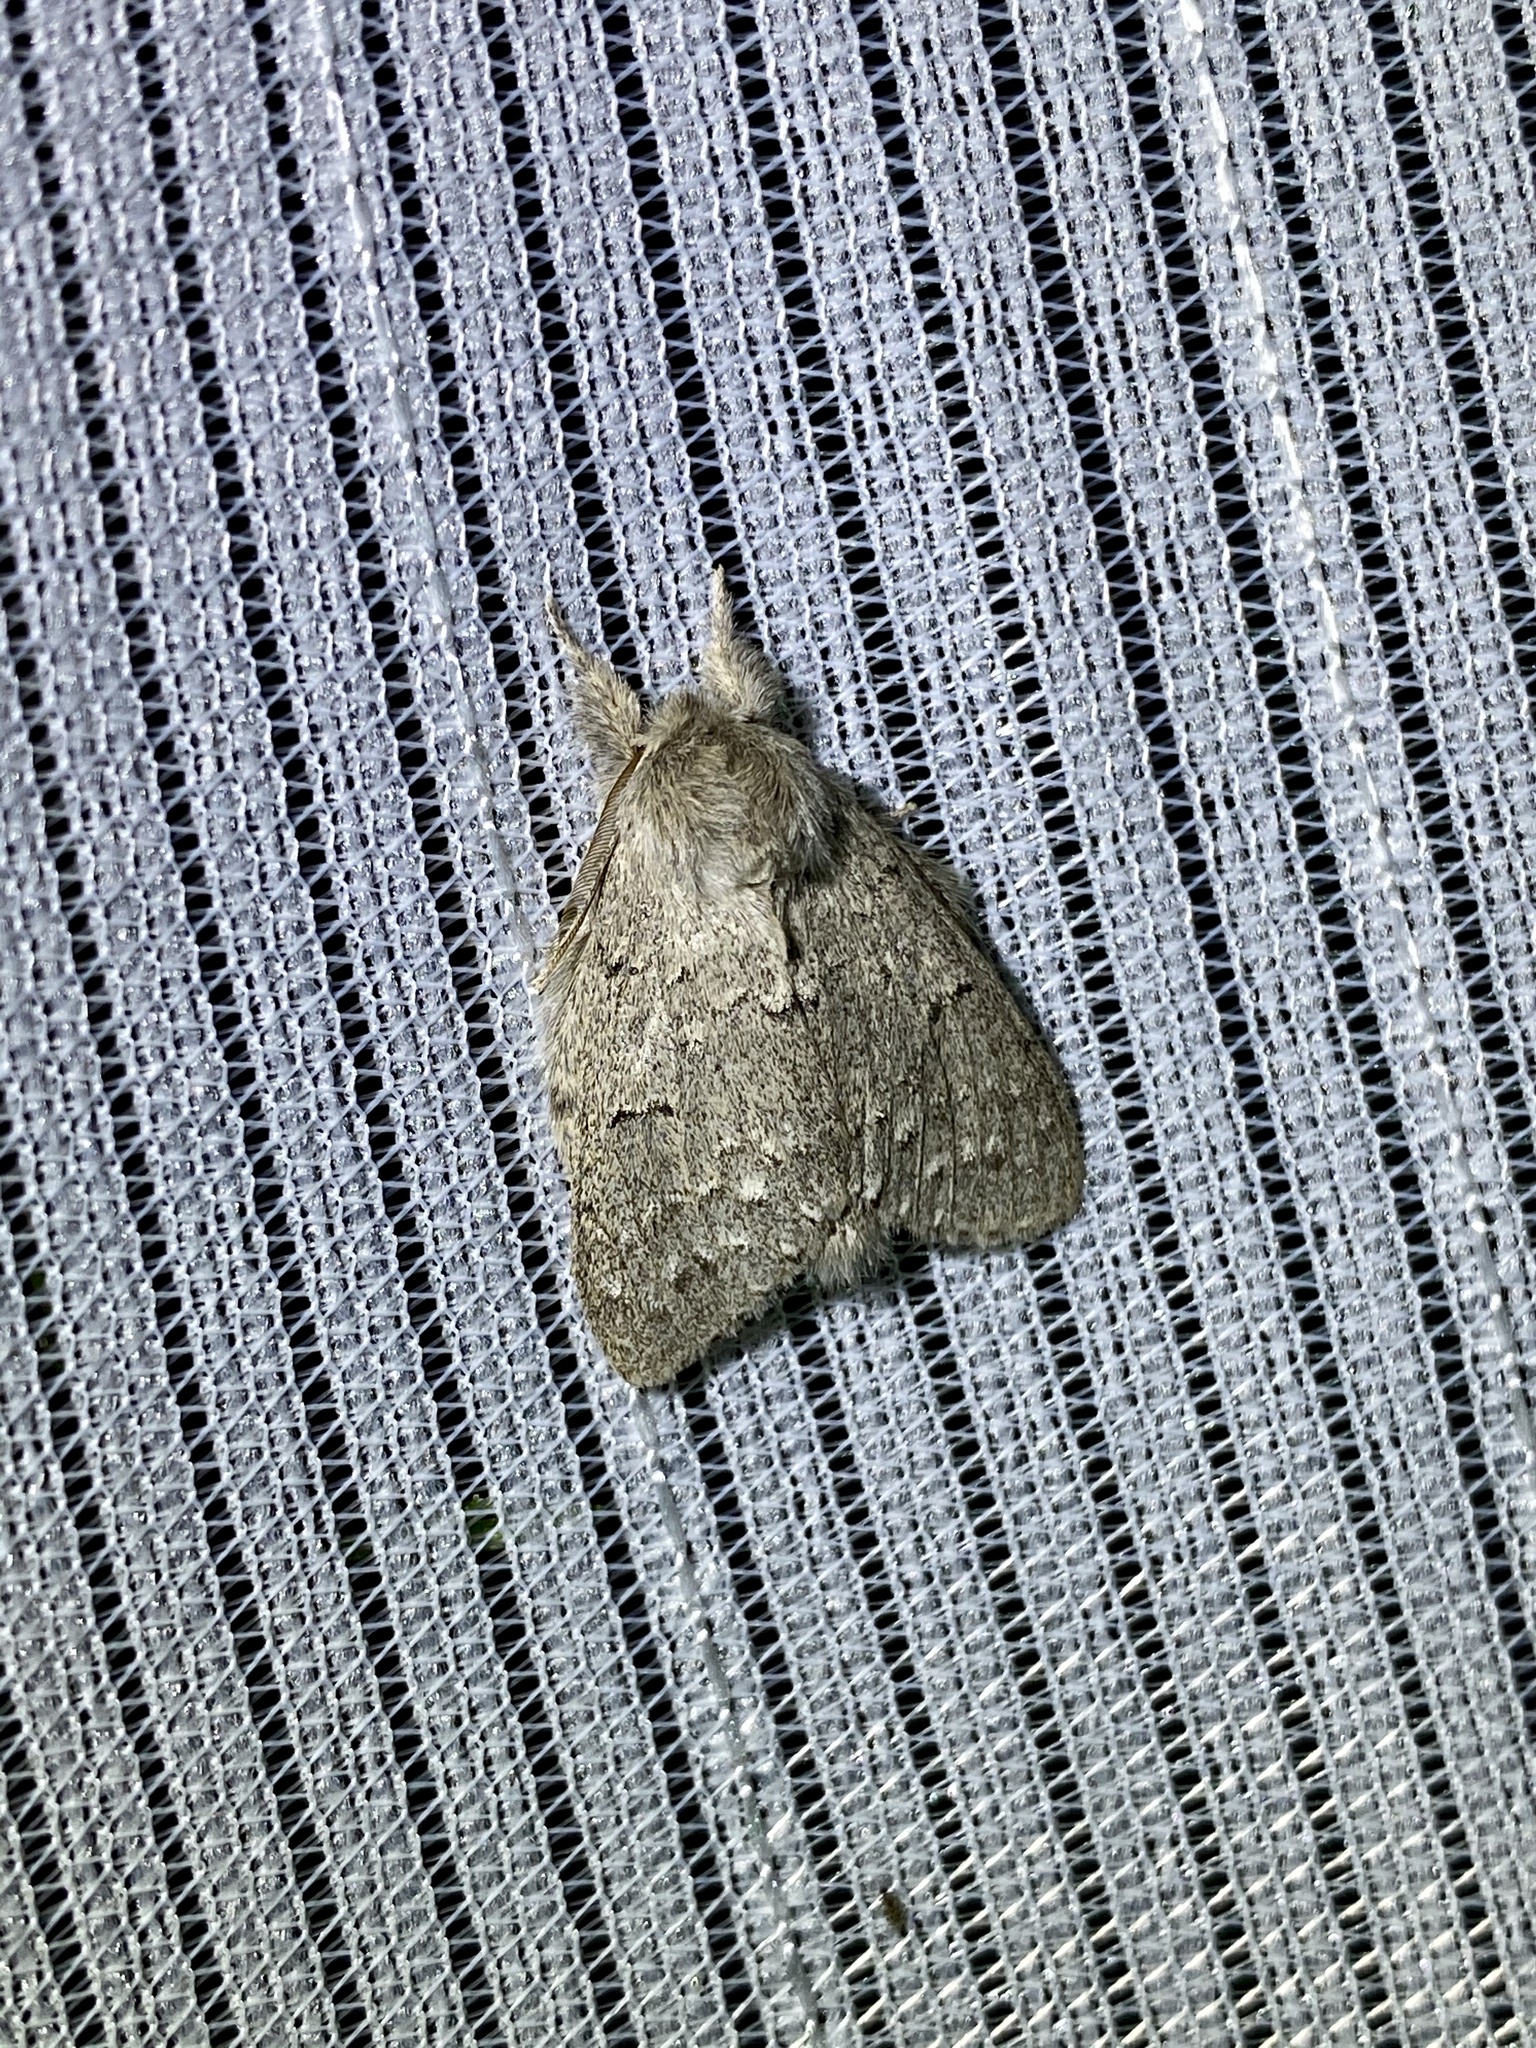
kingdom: Animalia
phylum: Arthropoda
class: Insecta
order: Lepidoptera
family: Notodontidae
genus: Cnethodonta
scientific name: Cnethodonta grisescens
